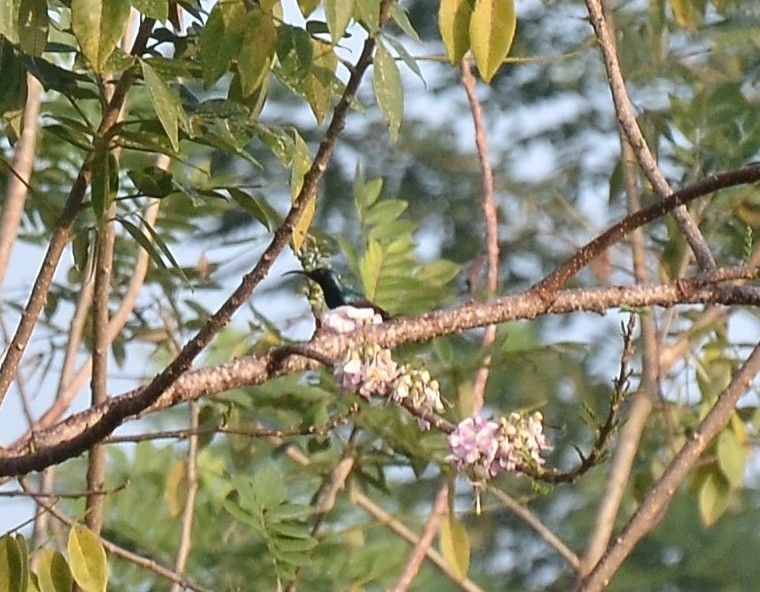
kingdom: Animalia
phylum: Chordata
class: Aves
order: Passeriformes
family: Nectariniidae
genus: Cinnyris
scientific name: Cinnyris lotenius
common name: Loten's sunbird
